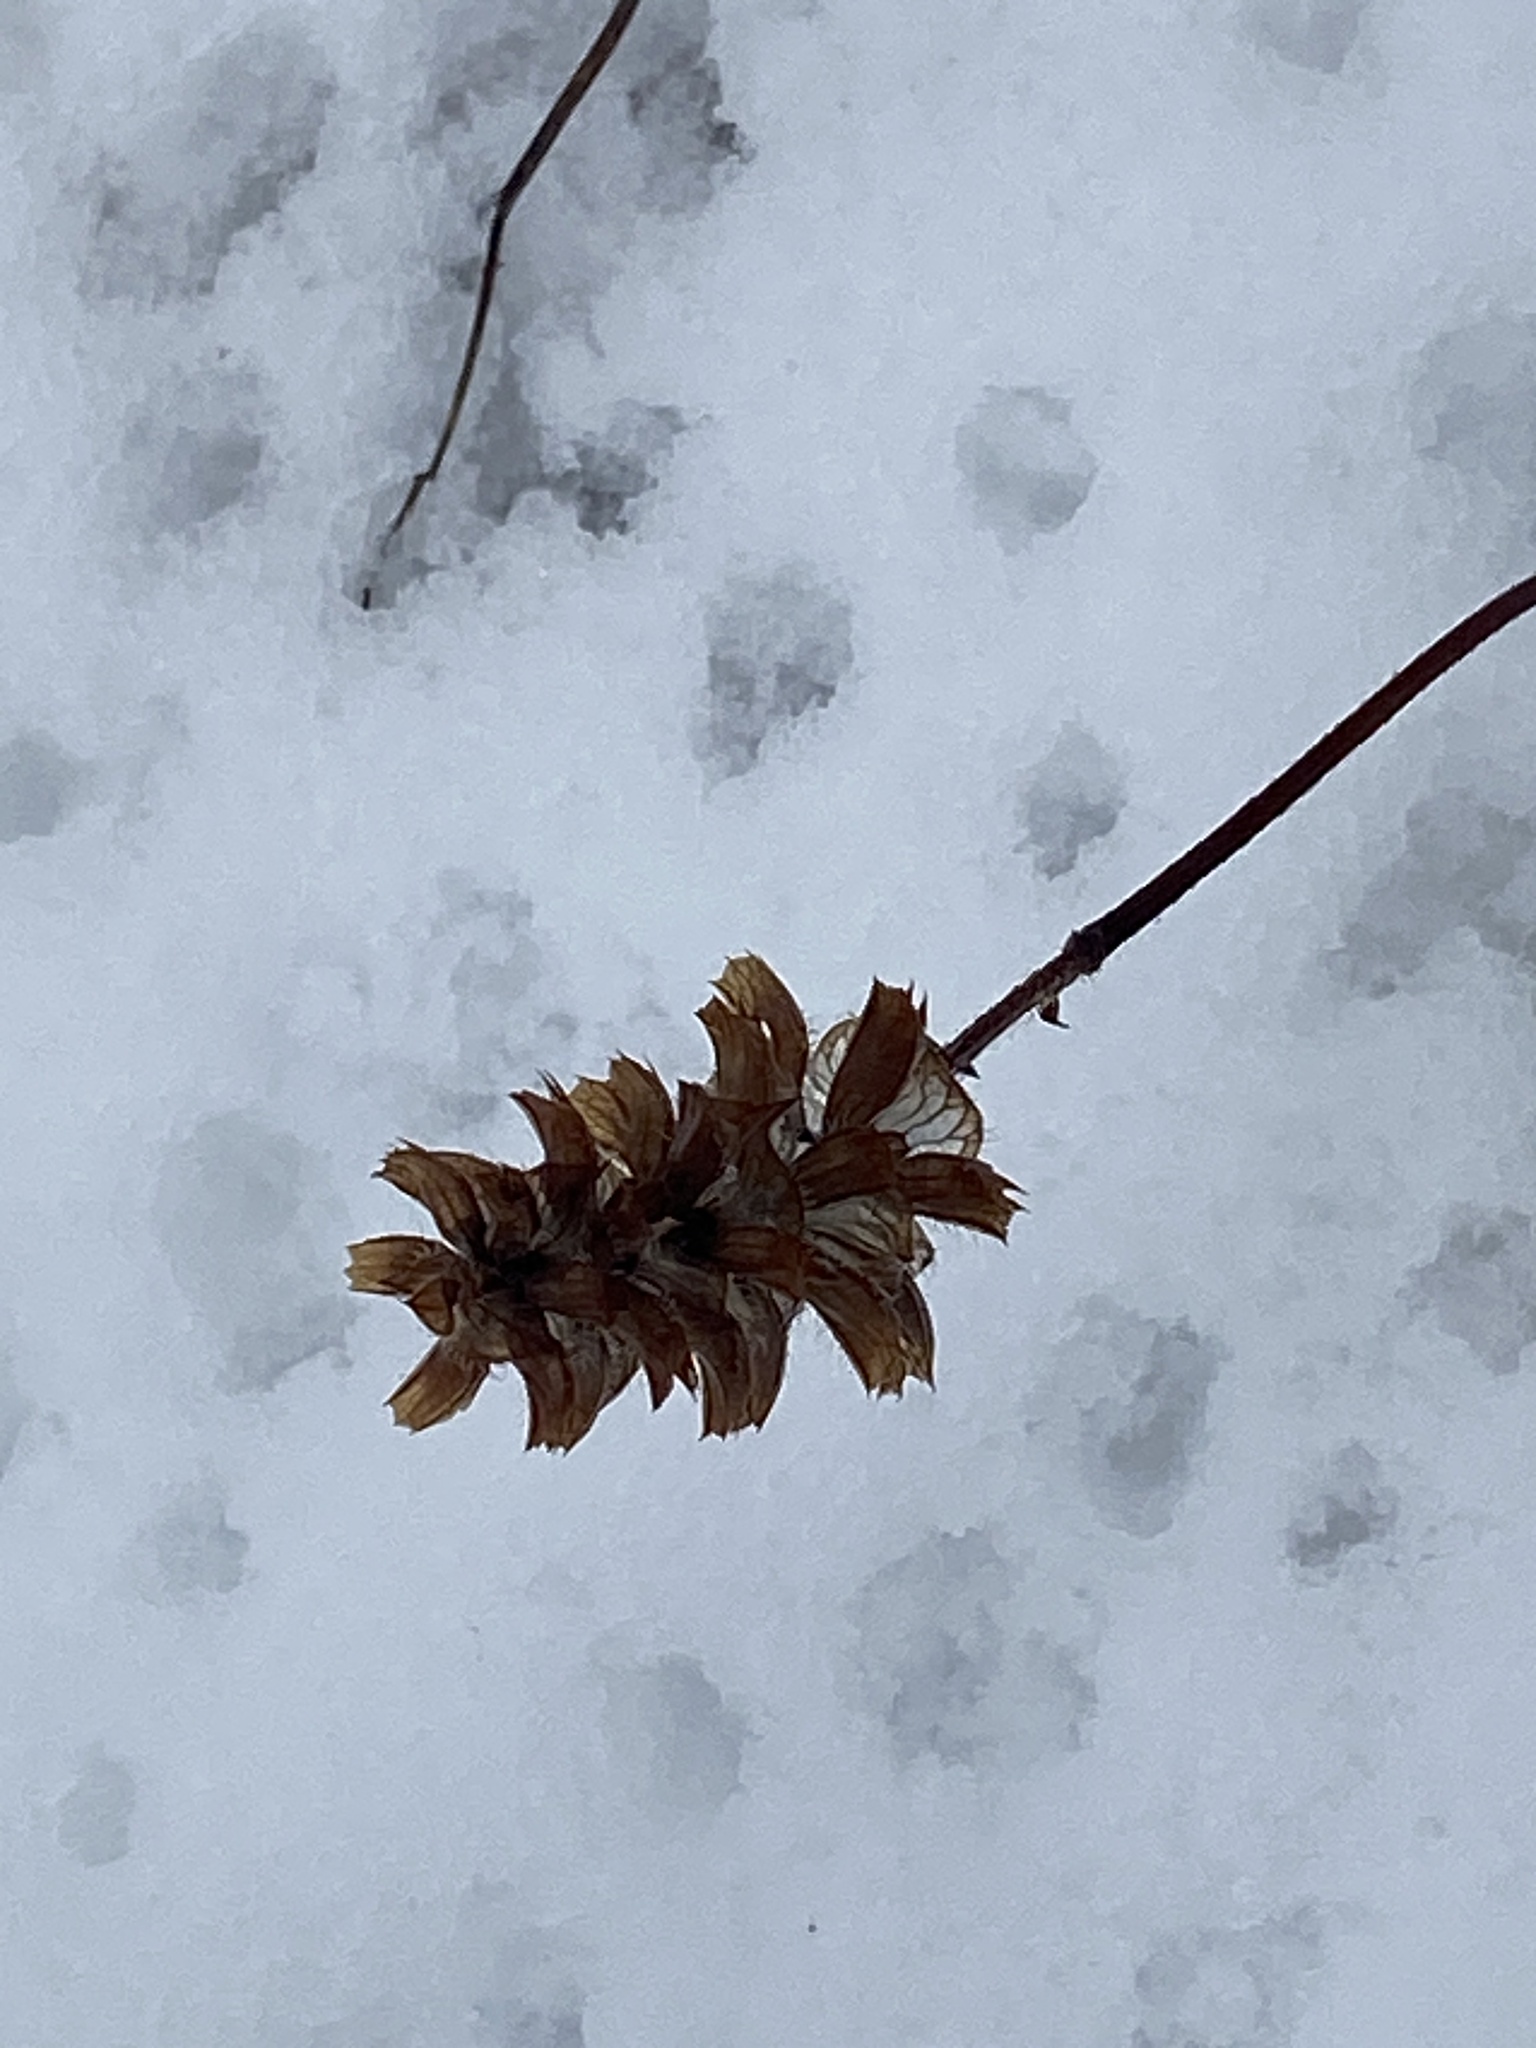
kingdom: Plantae
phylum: Tracheophyta
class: Magnoliopsida
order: Lamiales
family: Lamiaceae
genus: Prunella
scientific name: Prunella vulgaris
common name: Heal-all
